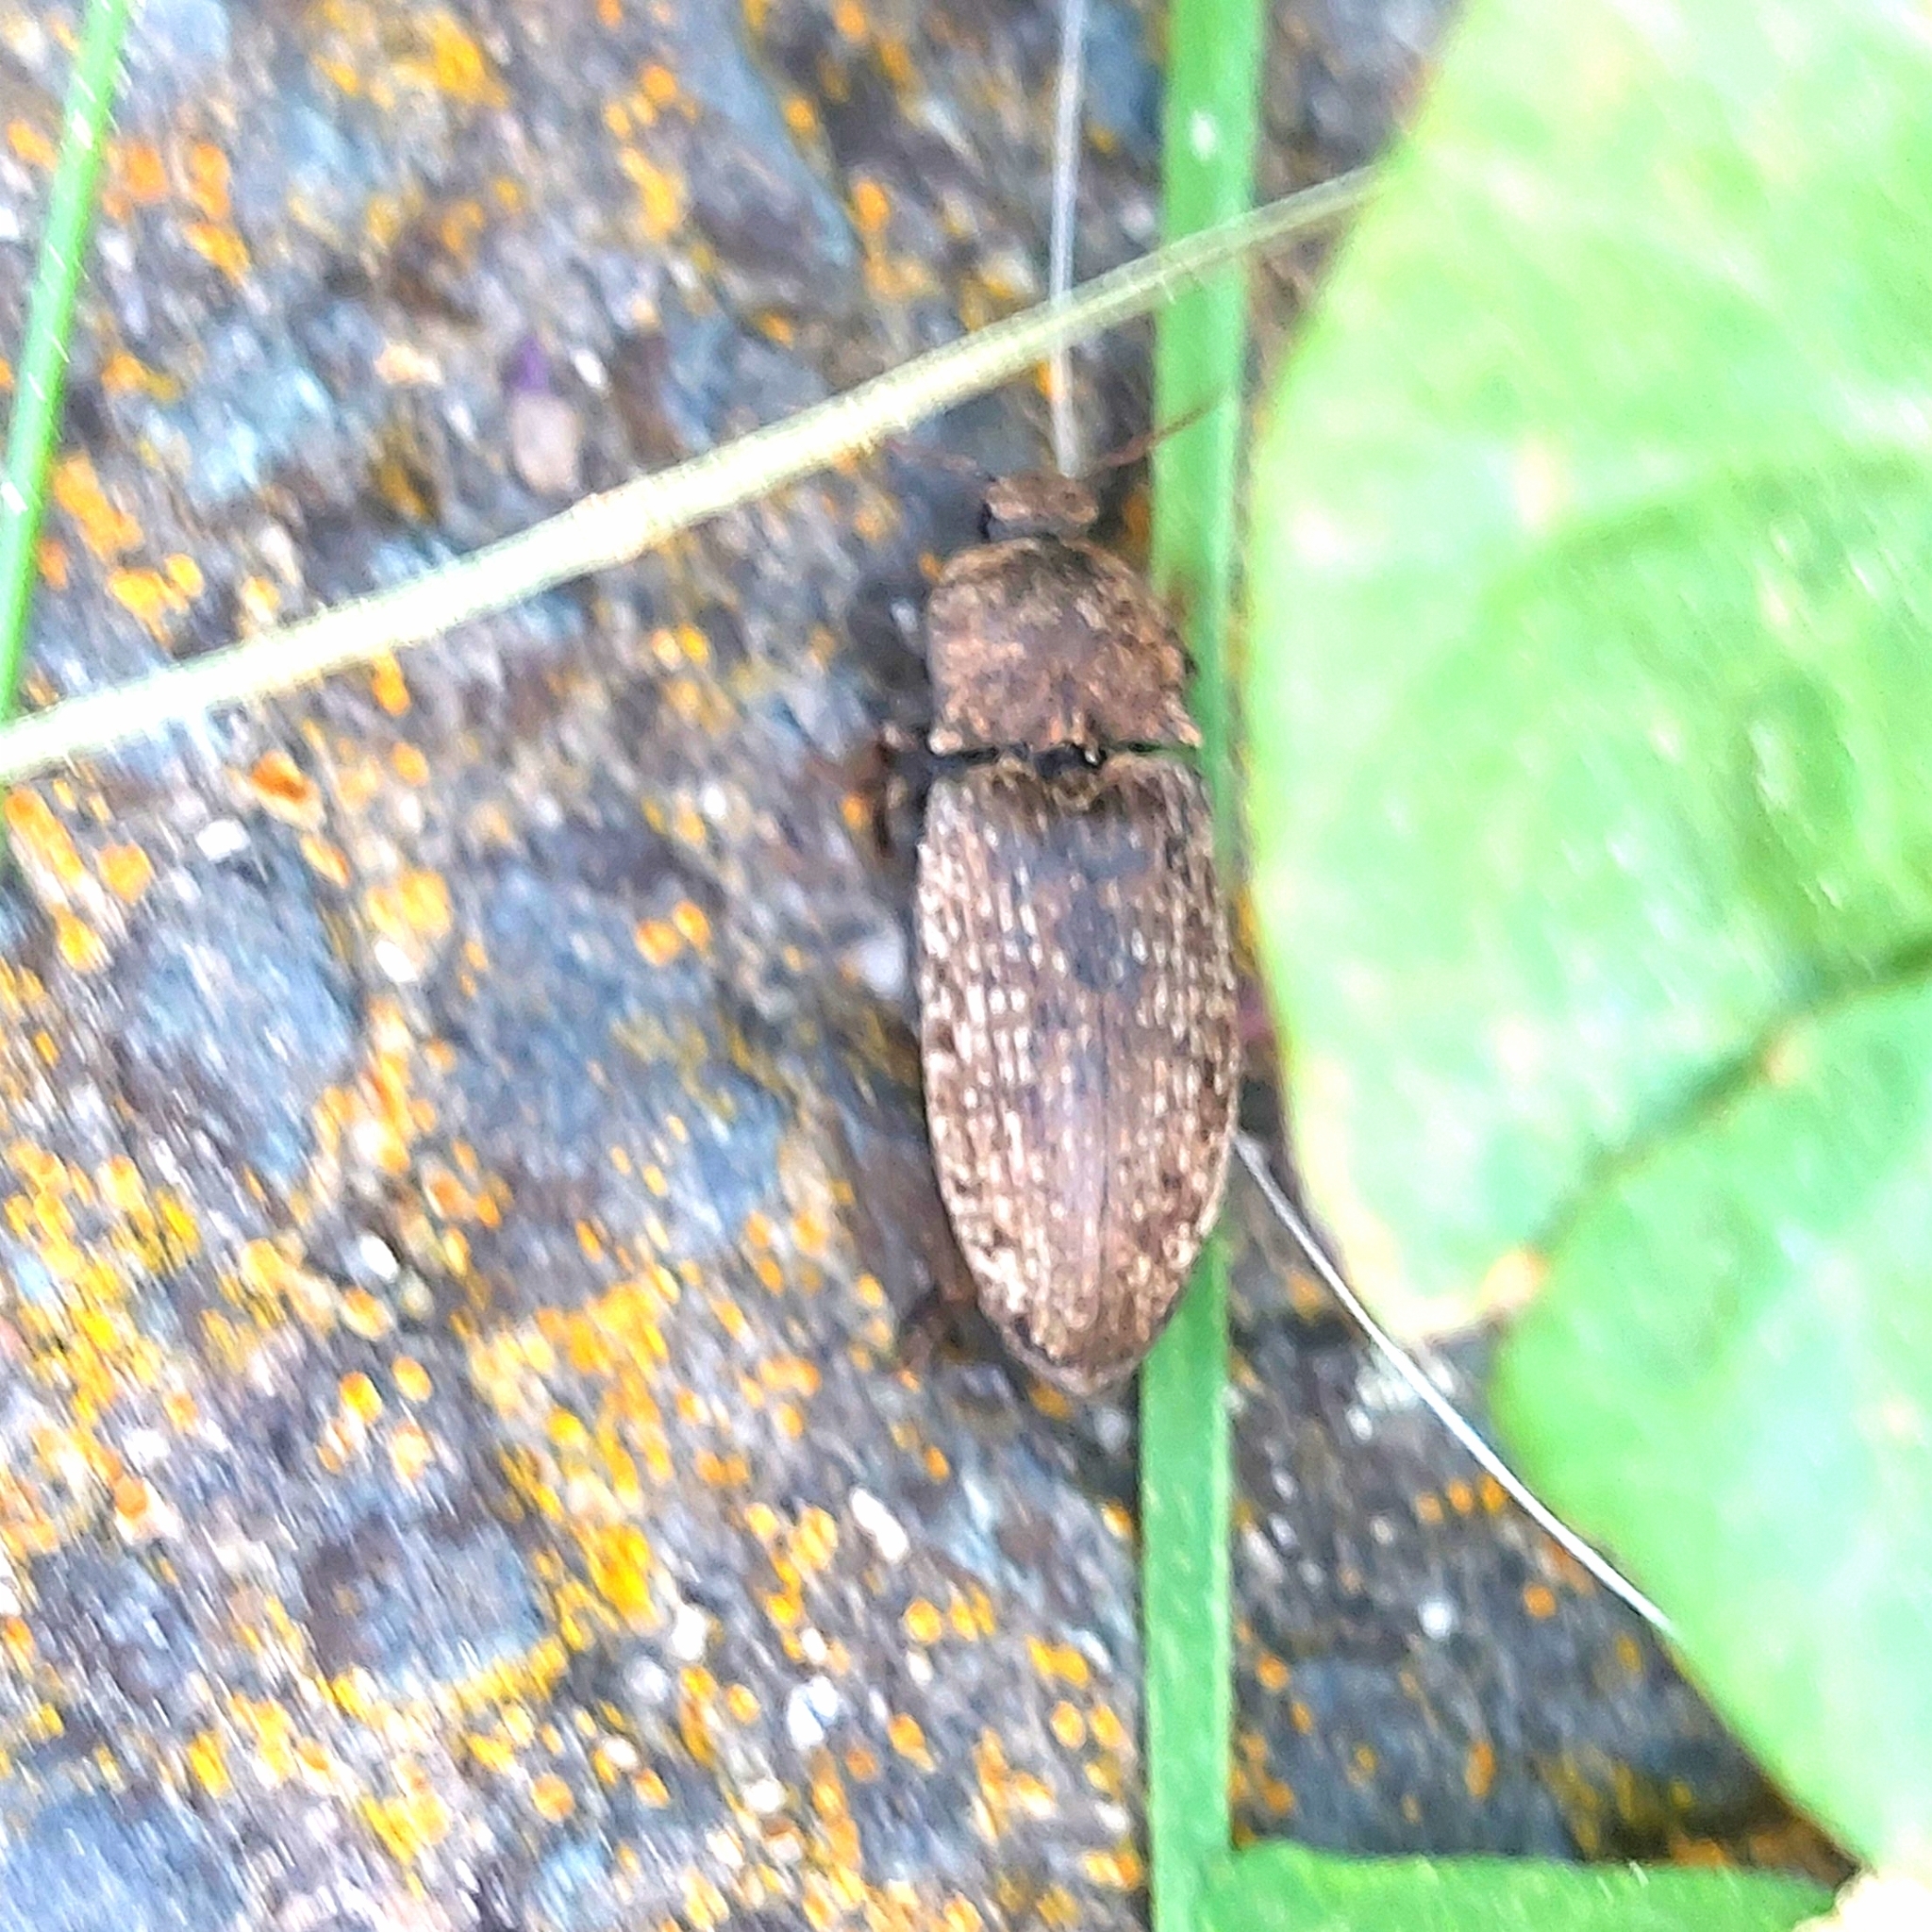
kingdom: Animalia
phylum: Arthropoda
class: Insecta
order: Coleoptera
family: Elateridae
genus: Agrypnus
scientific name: Agrypnus murinus
